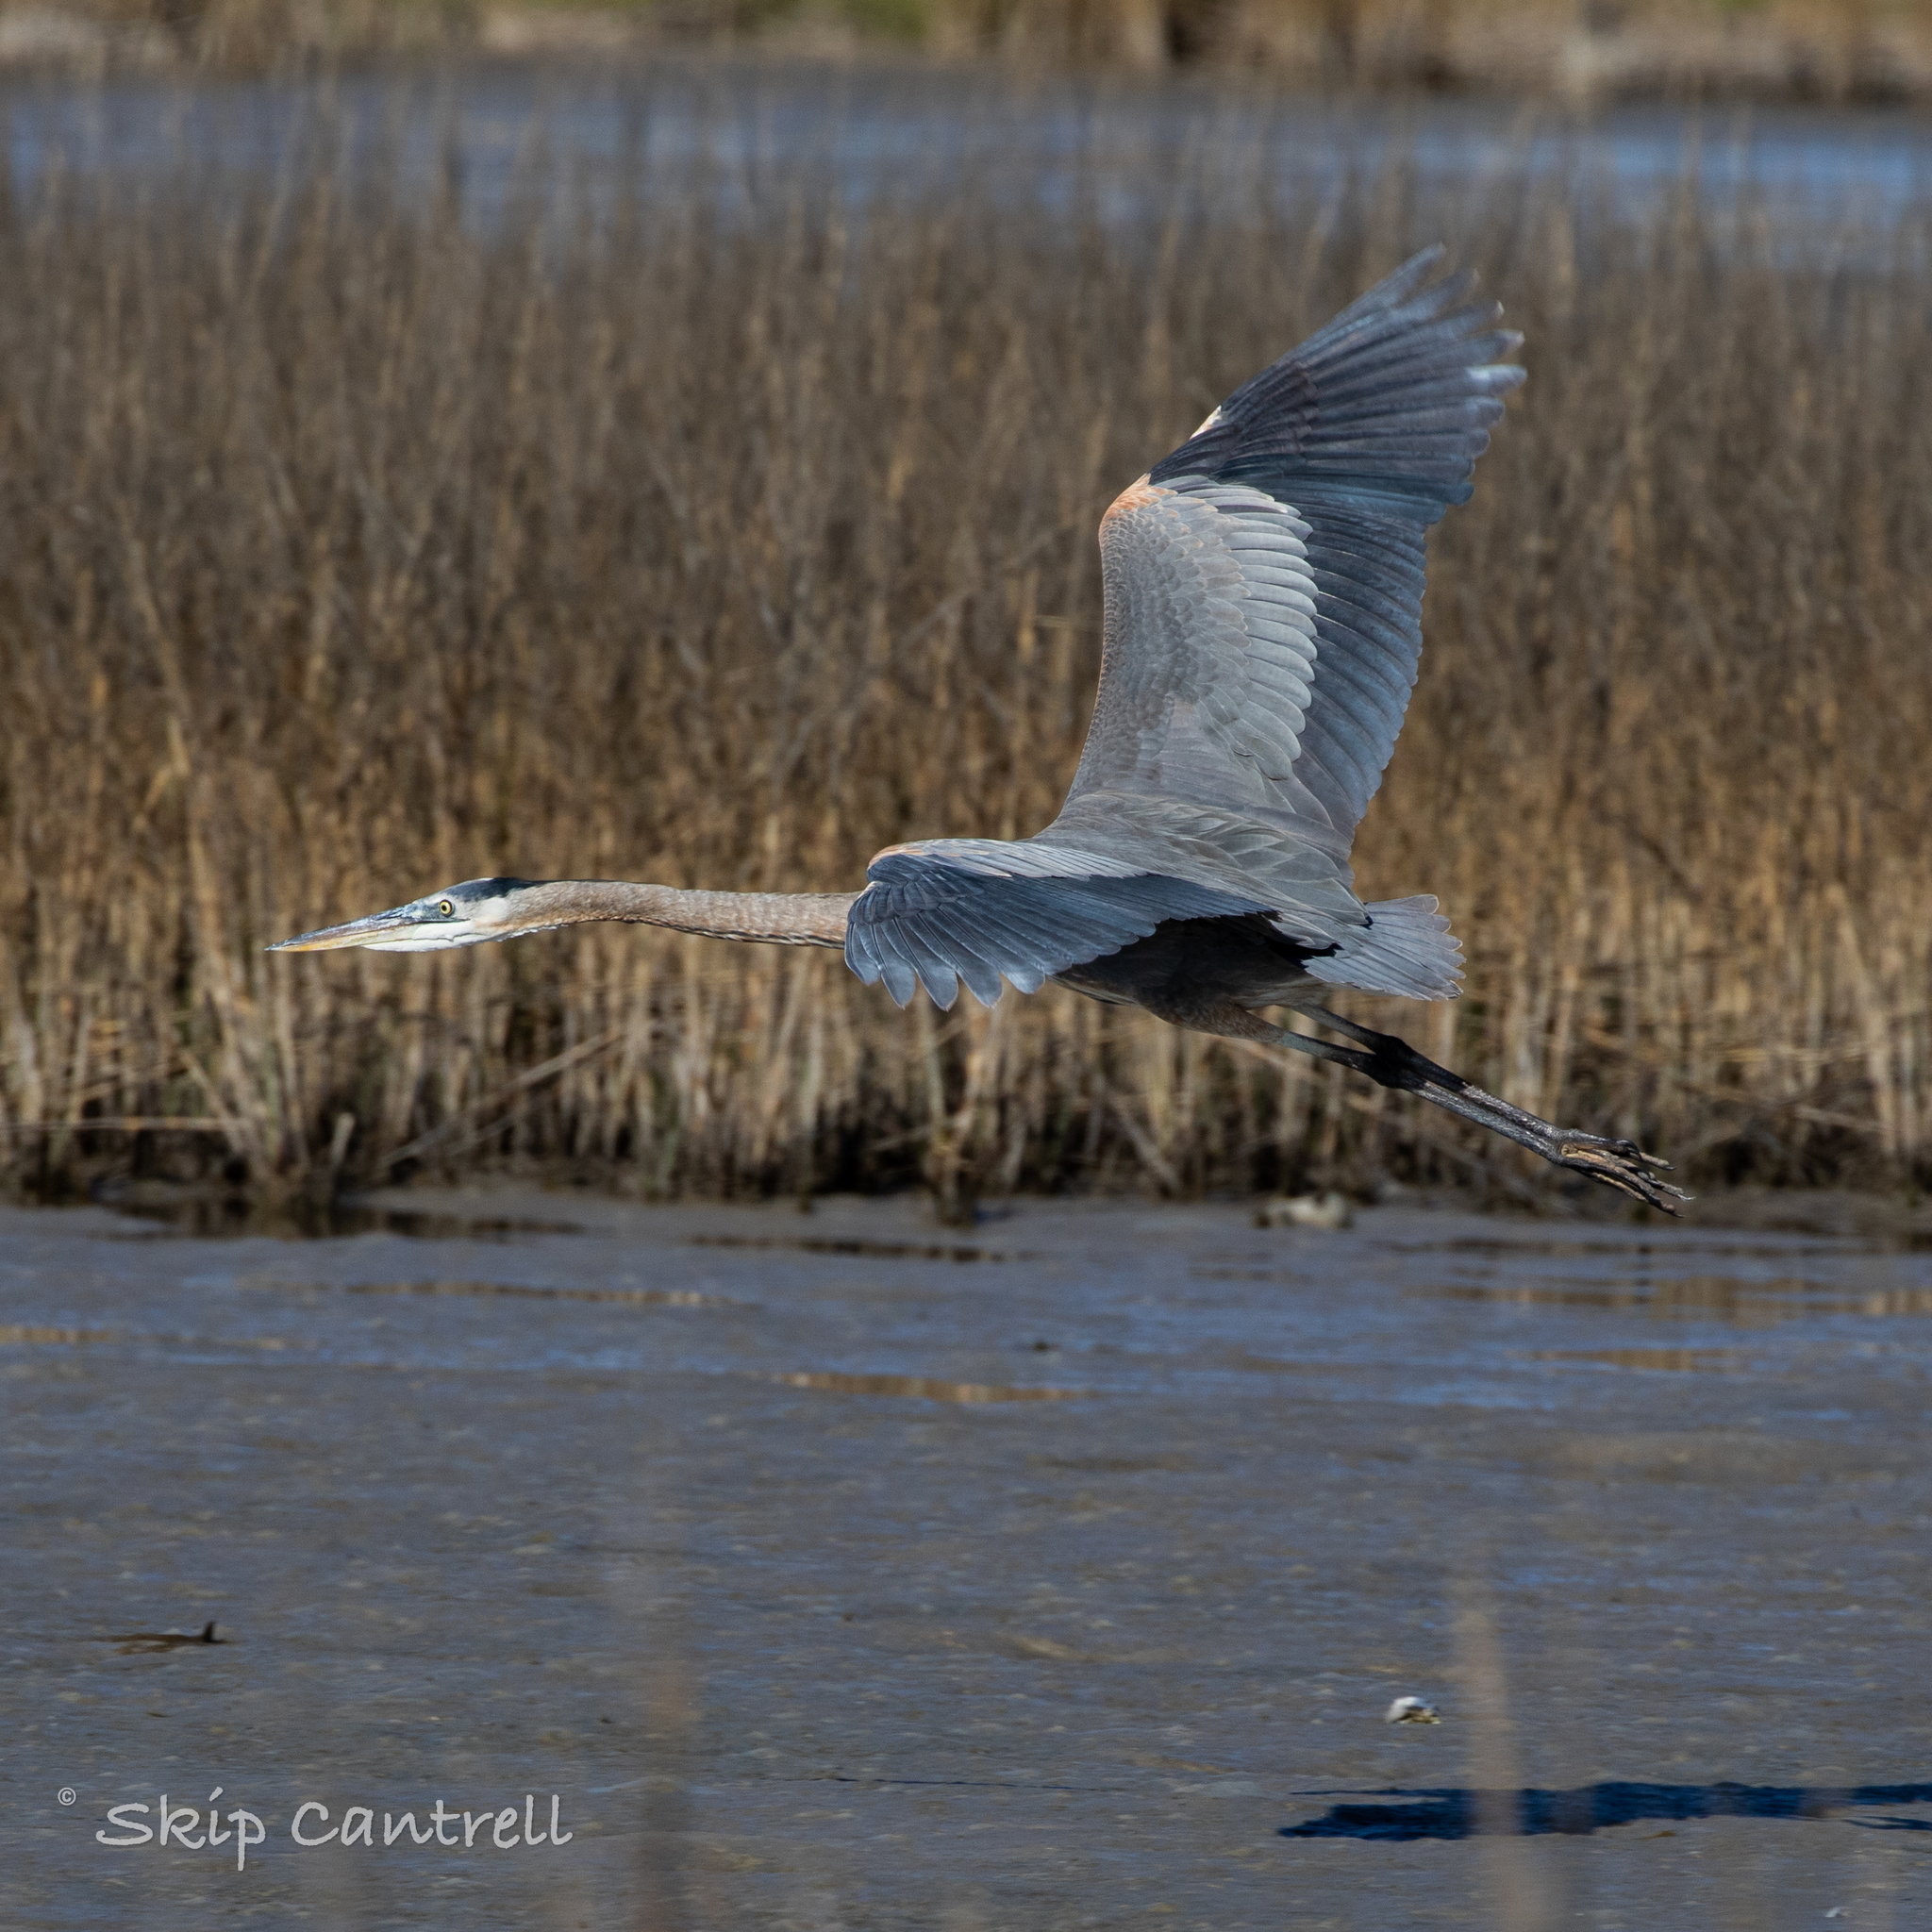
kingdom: Animalia
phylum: Chordata
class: Aves
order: Pelecaniformes
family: Ardeidae
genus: Ardea
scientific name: Ardea herodias
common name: Great blue heron
